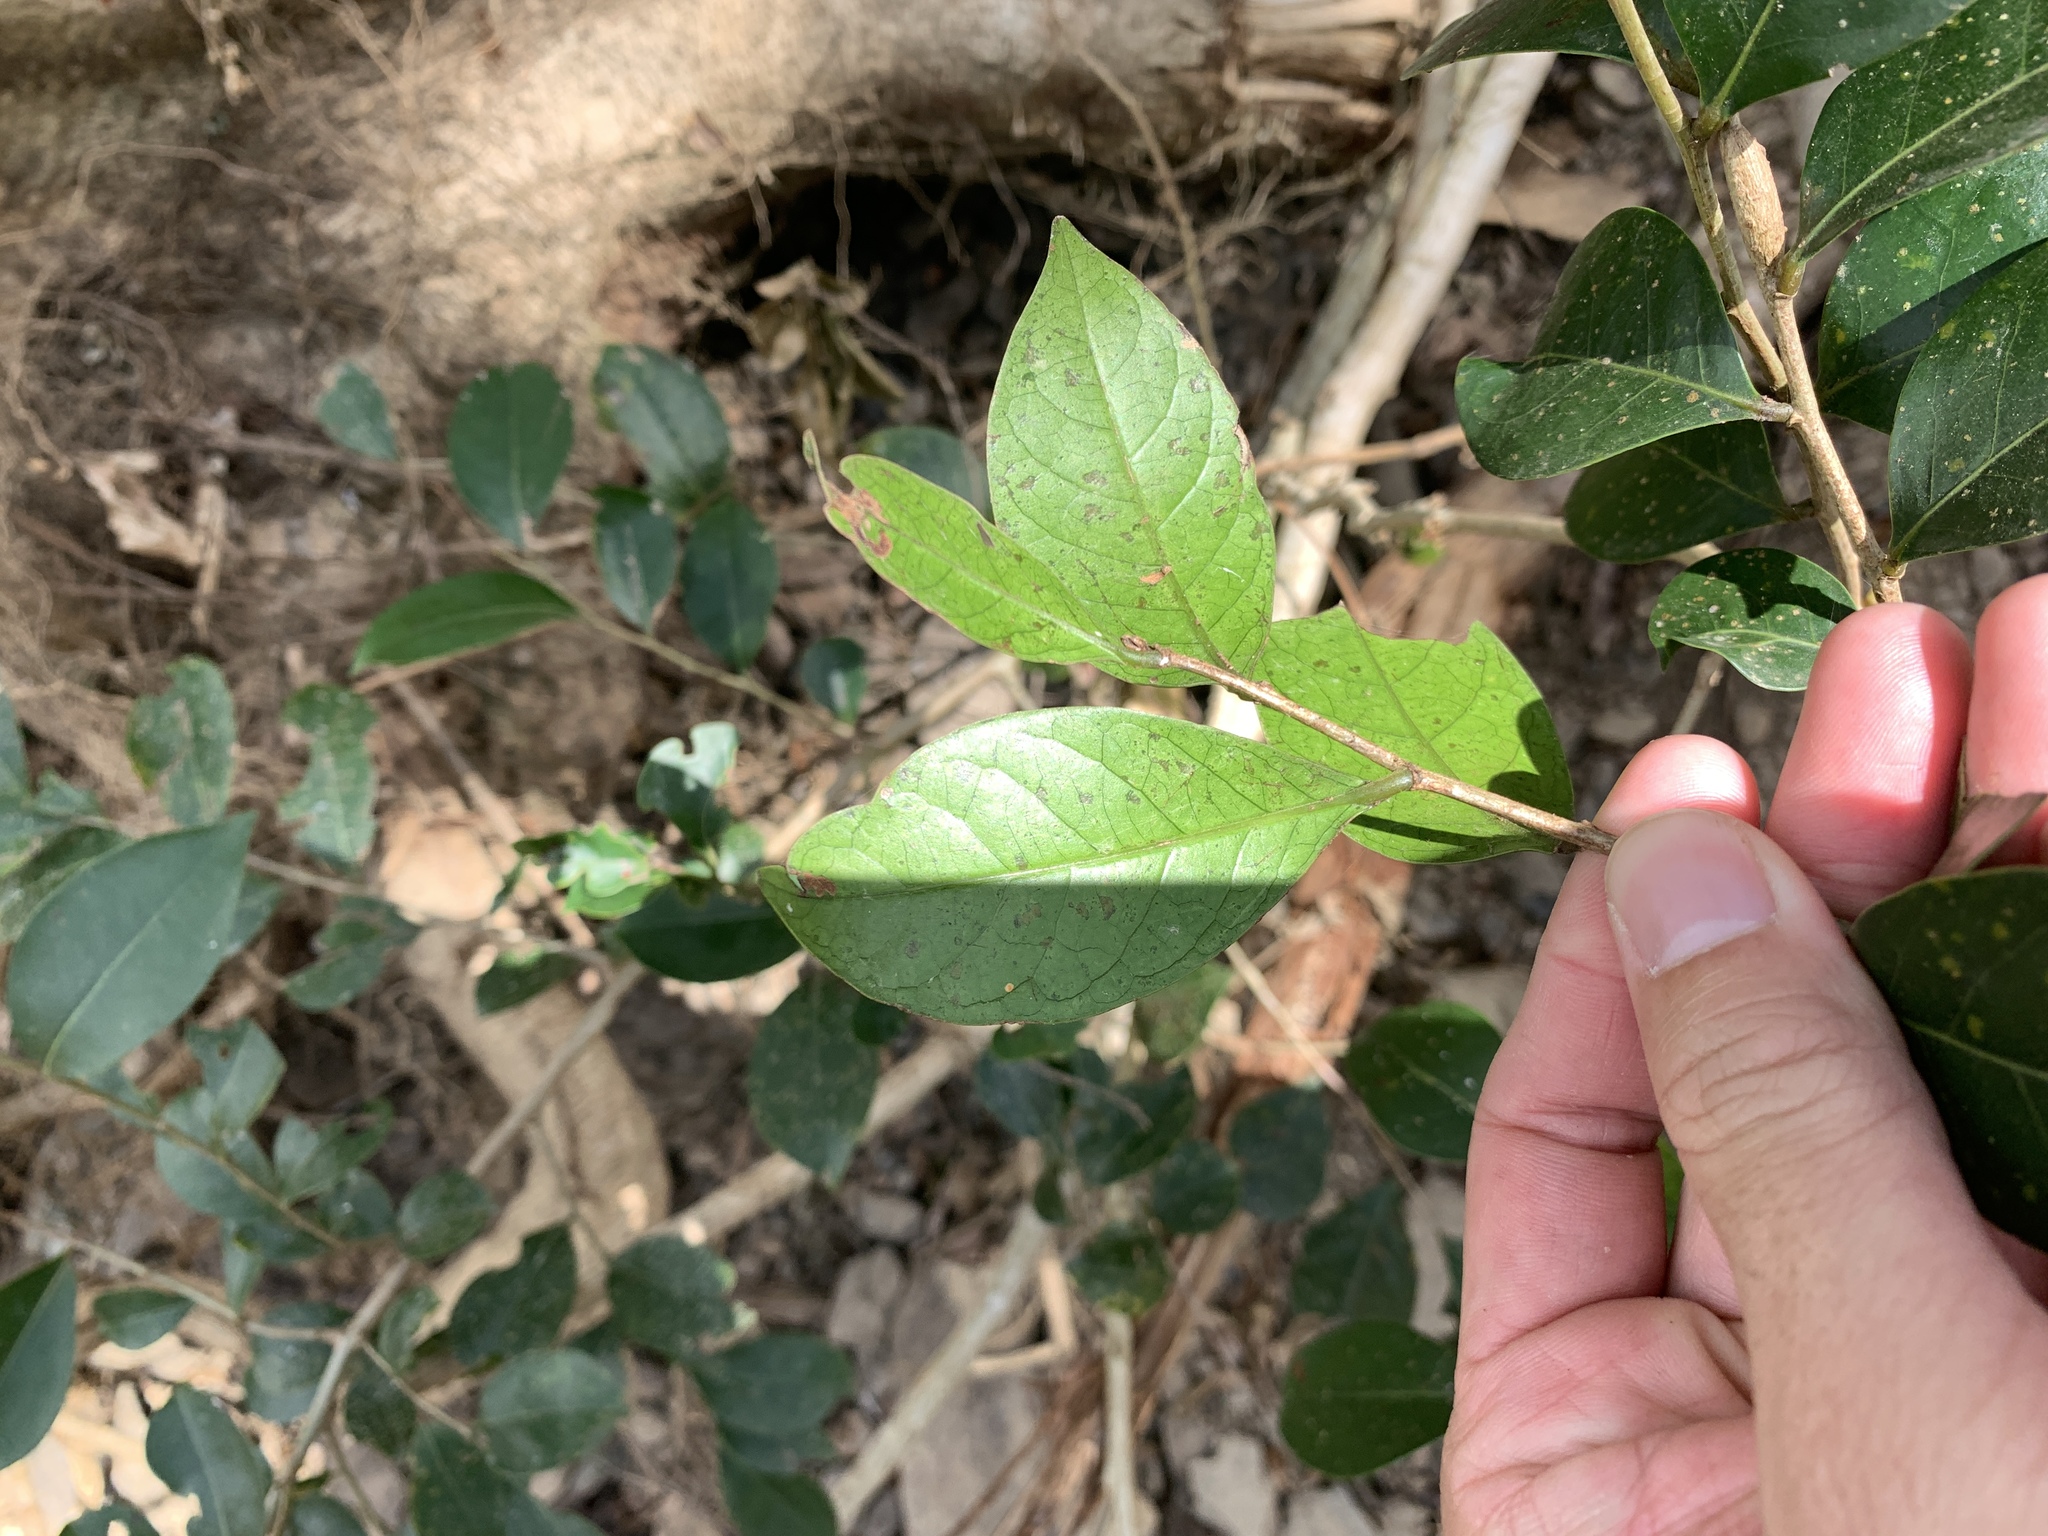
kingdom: Plantae
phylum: Tracheophyta
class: Magnoliopsida
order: Malpighiales
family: Phyllanthaceae
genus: Glochidion
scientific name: Glochidion rubrum
